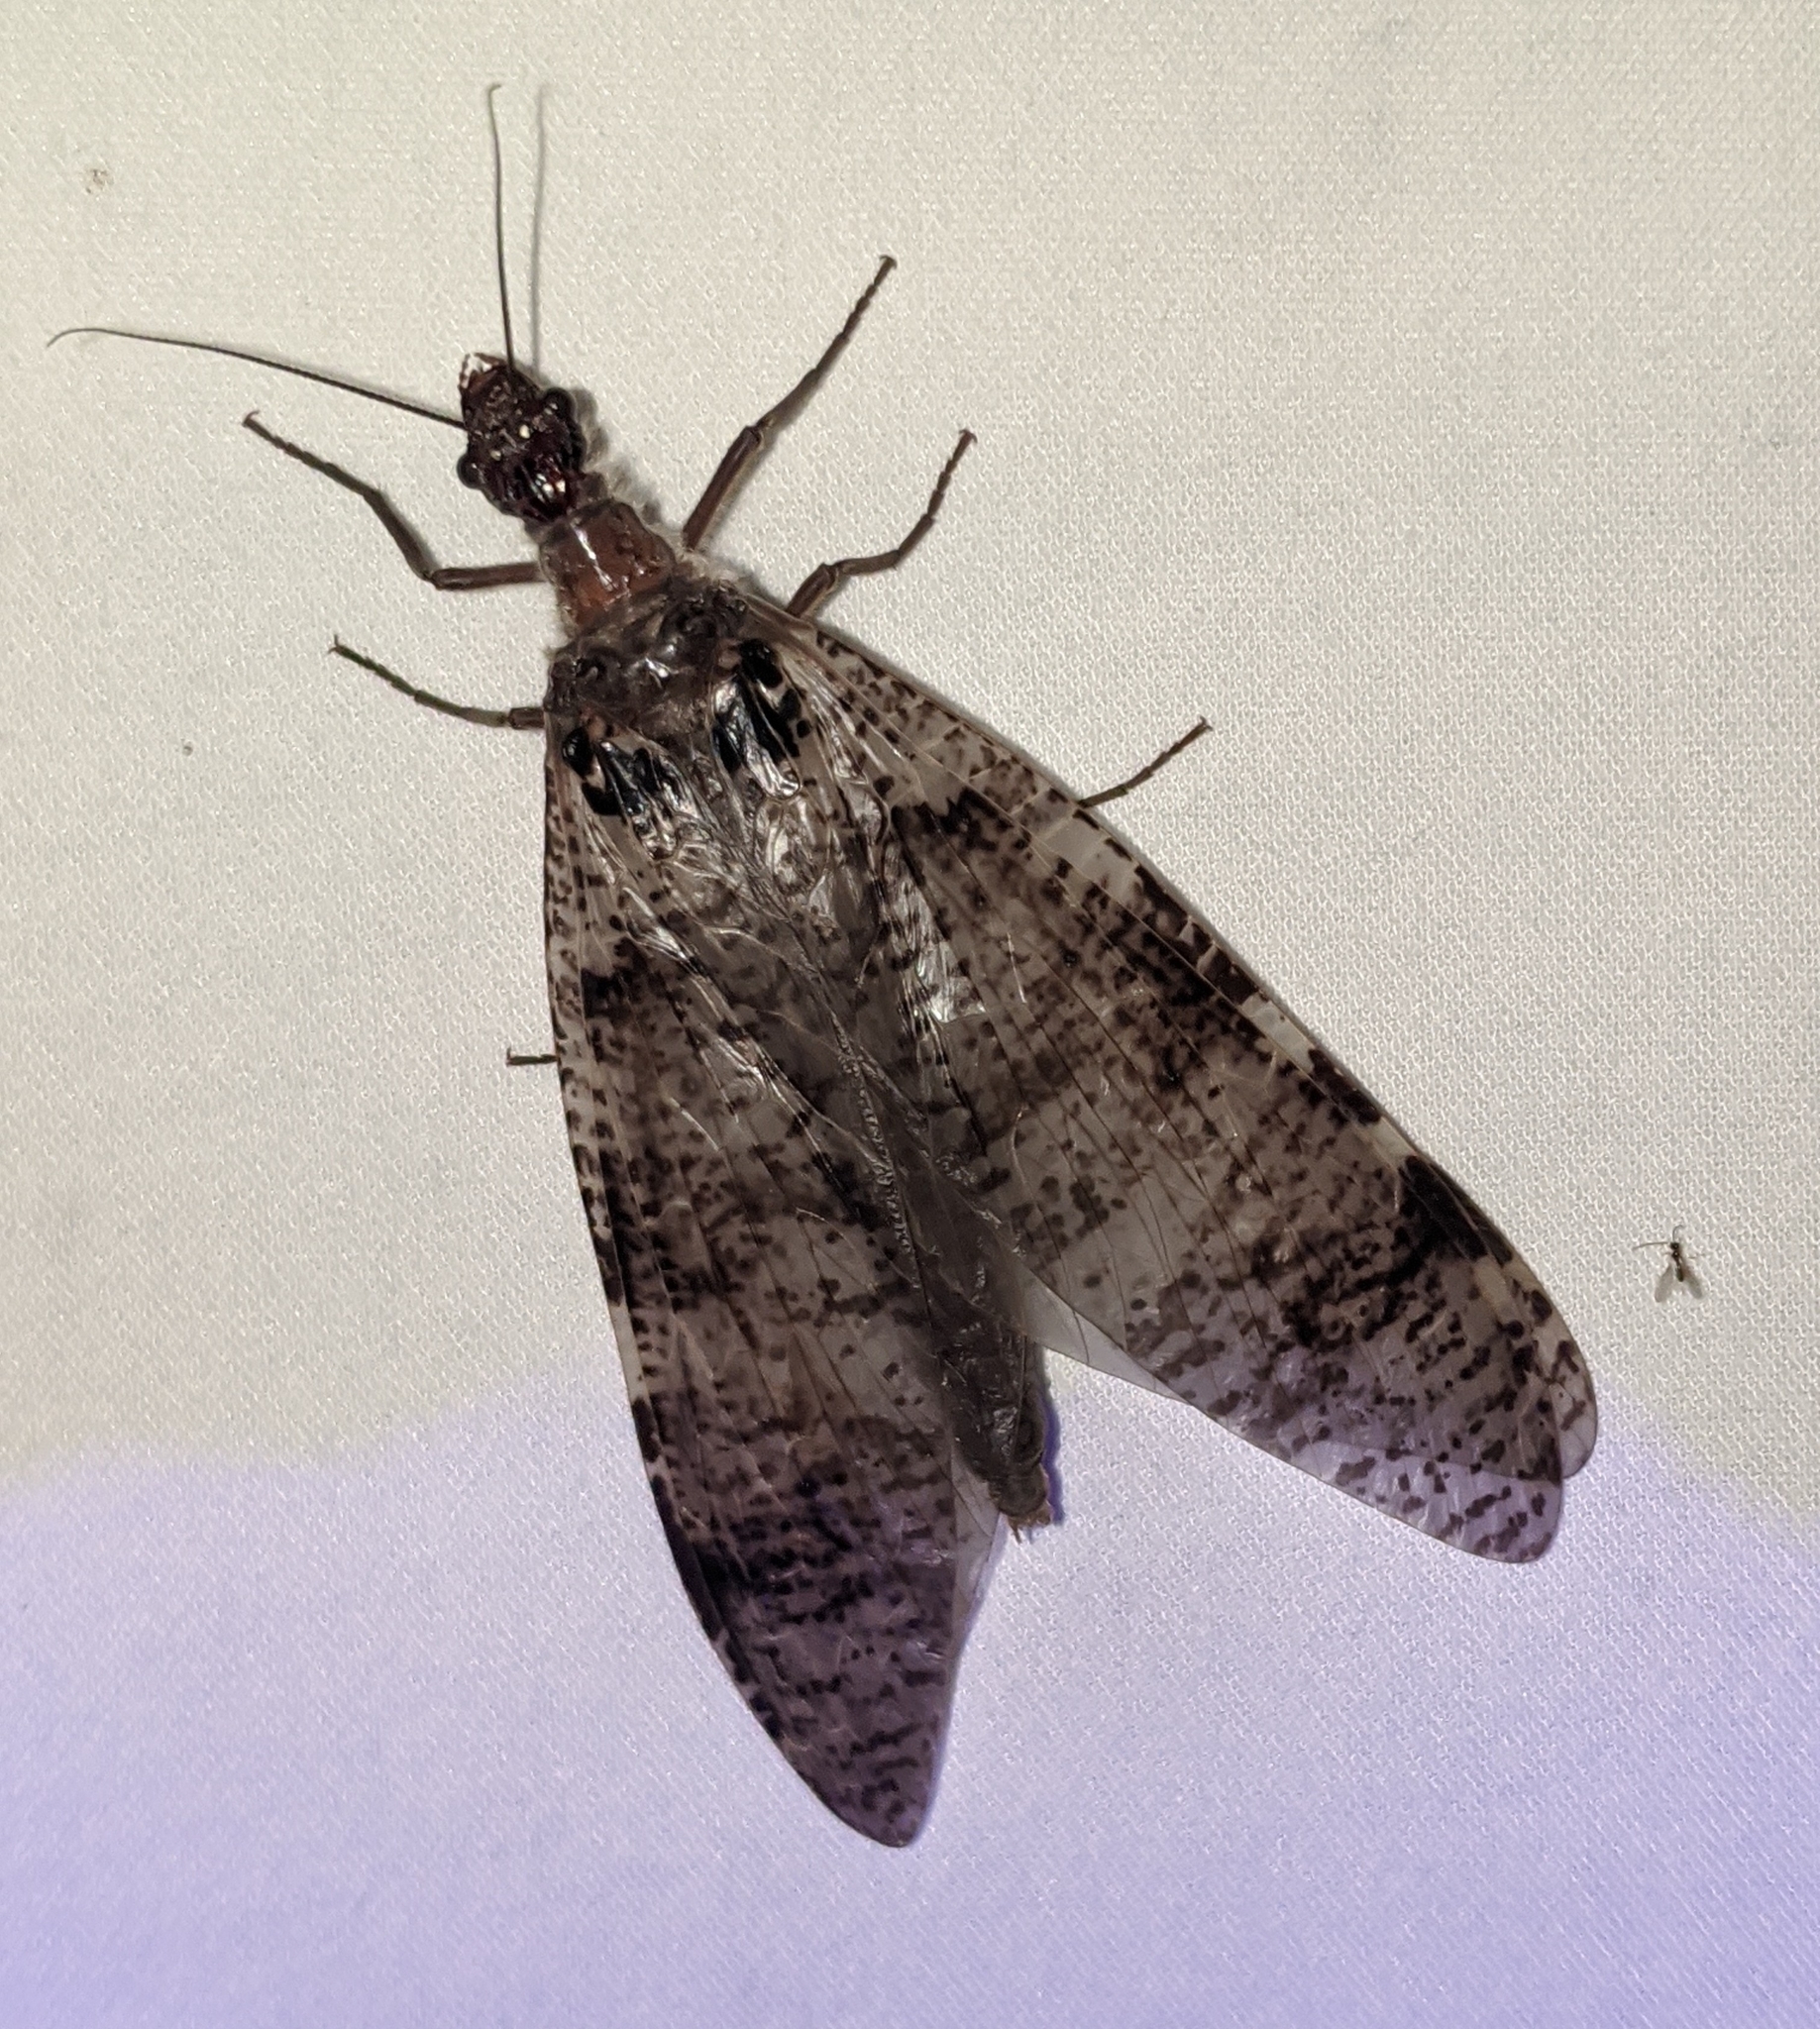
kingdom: Animalia
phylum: Arthropoda
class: Insecta
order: Megaloptera
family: Corydalidae
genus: Dysmicohermes
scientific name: Dysmicohermes disjunctus
